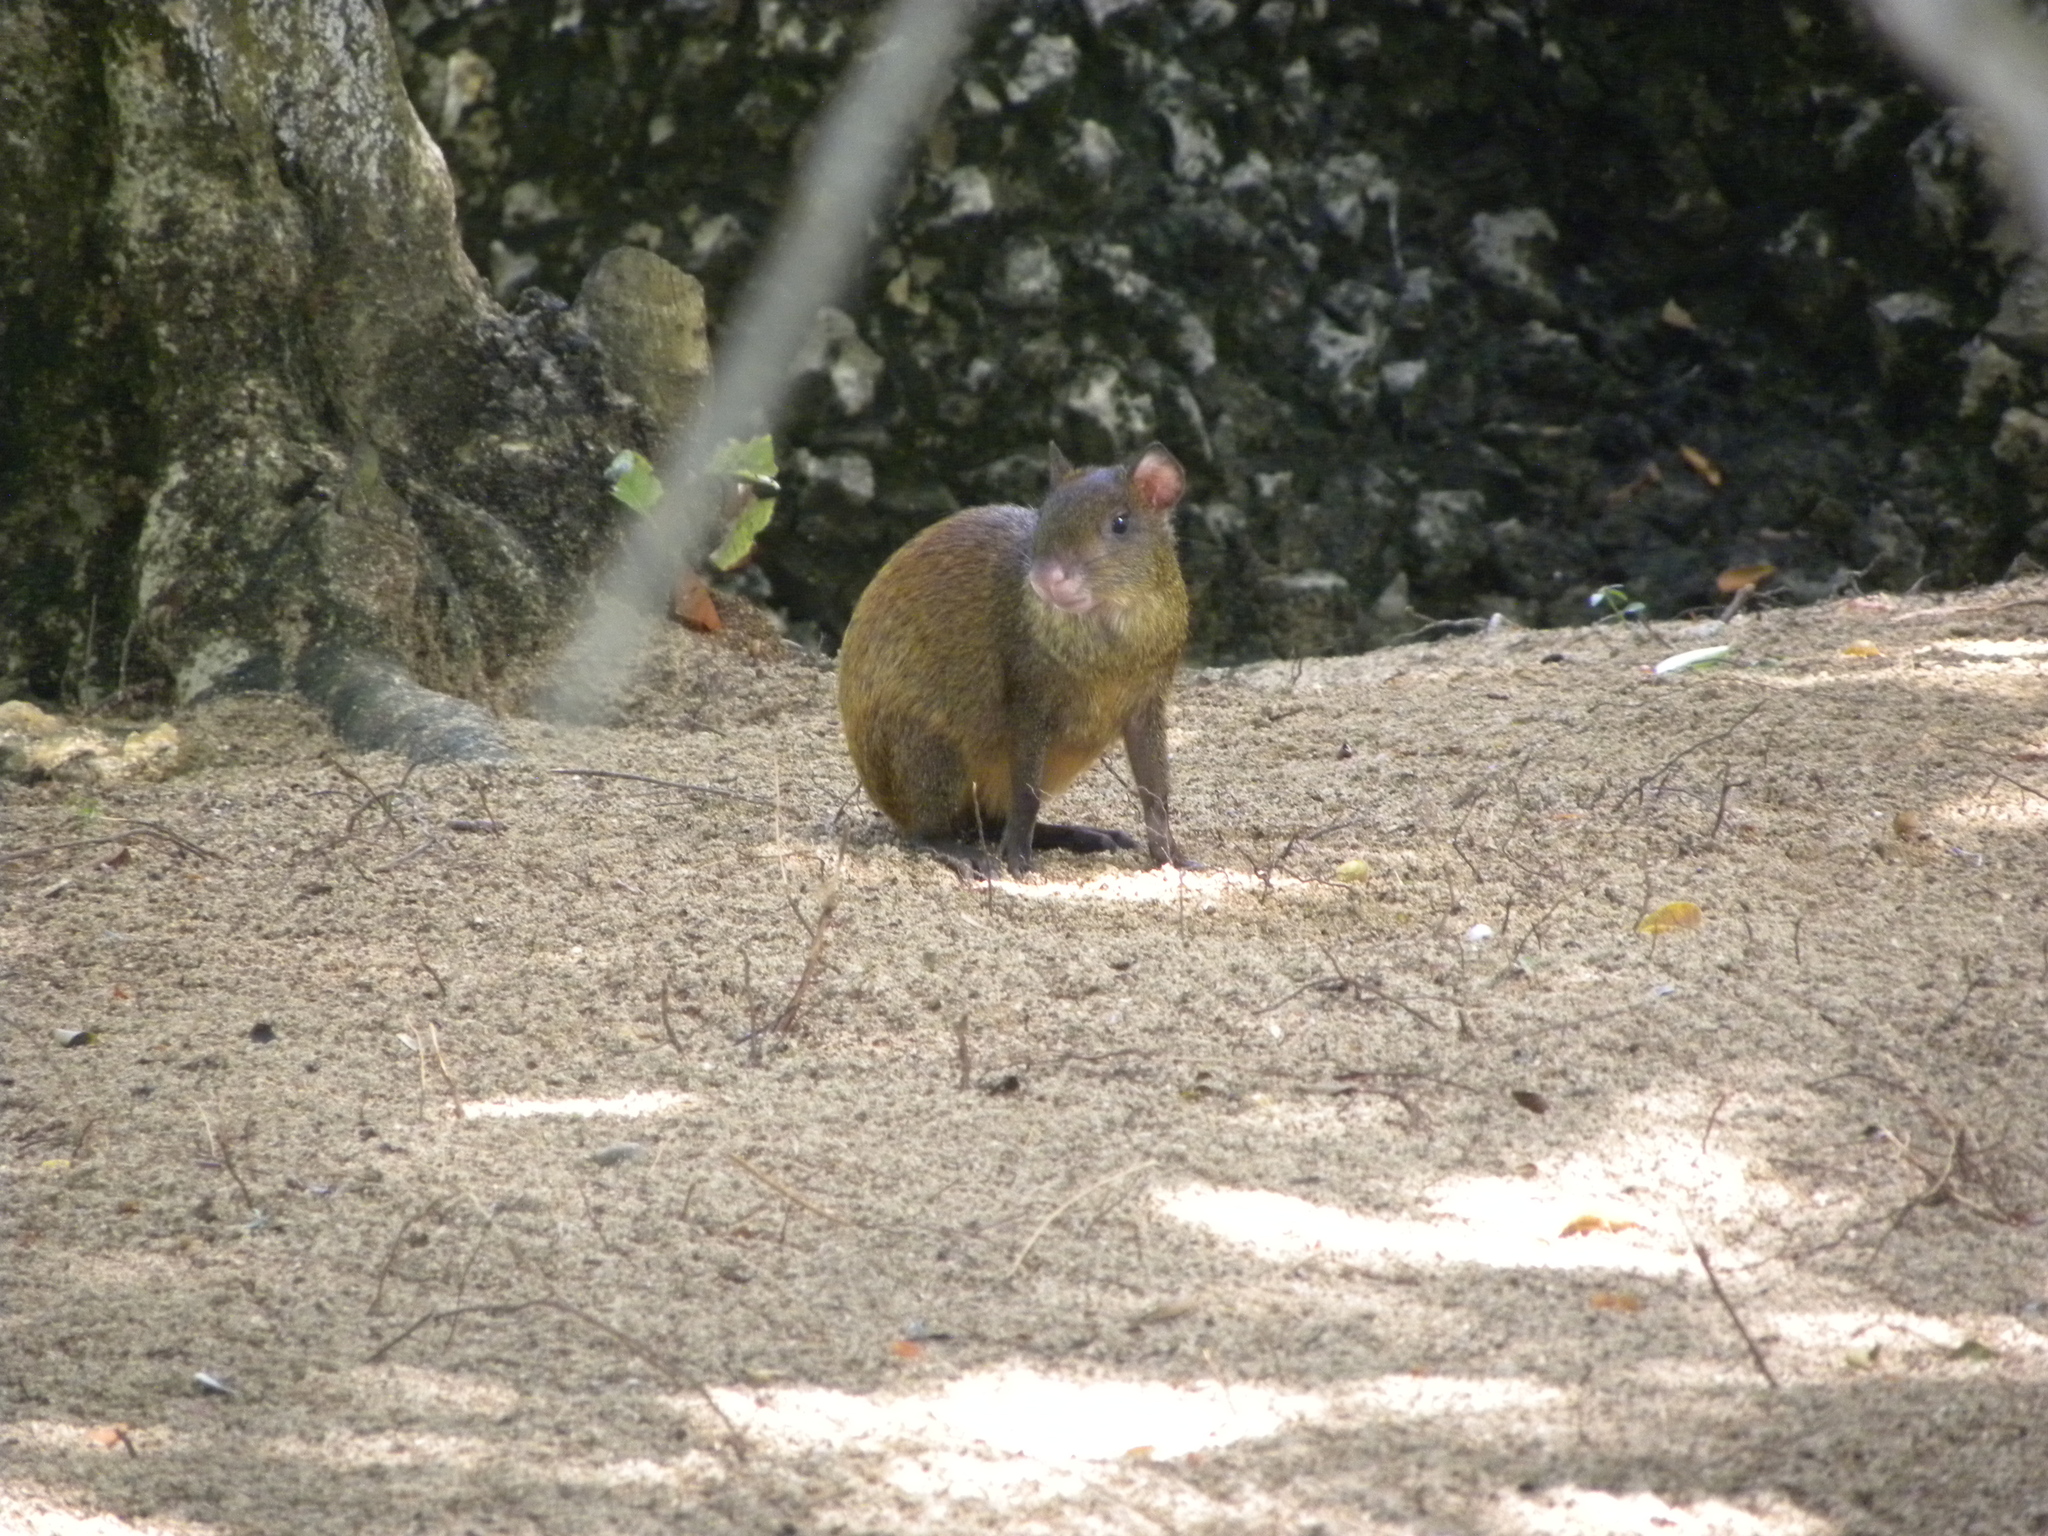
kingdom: Animalia
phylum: Chordata
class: Mammalia
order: Rodentia
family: Dasyproctidae
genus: Dasyprocta
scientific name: Dasyprocta ruatanica
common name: Roatán island agouti
